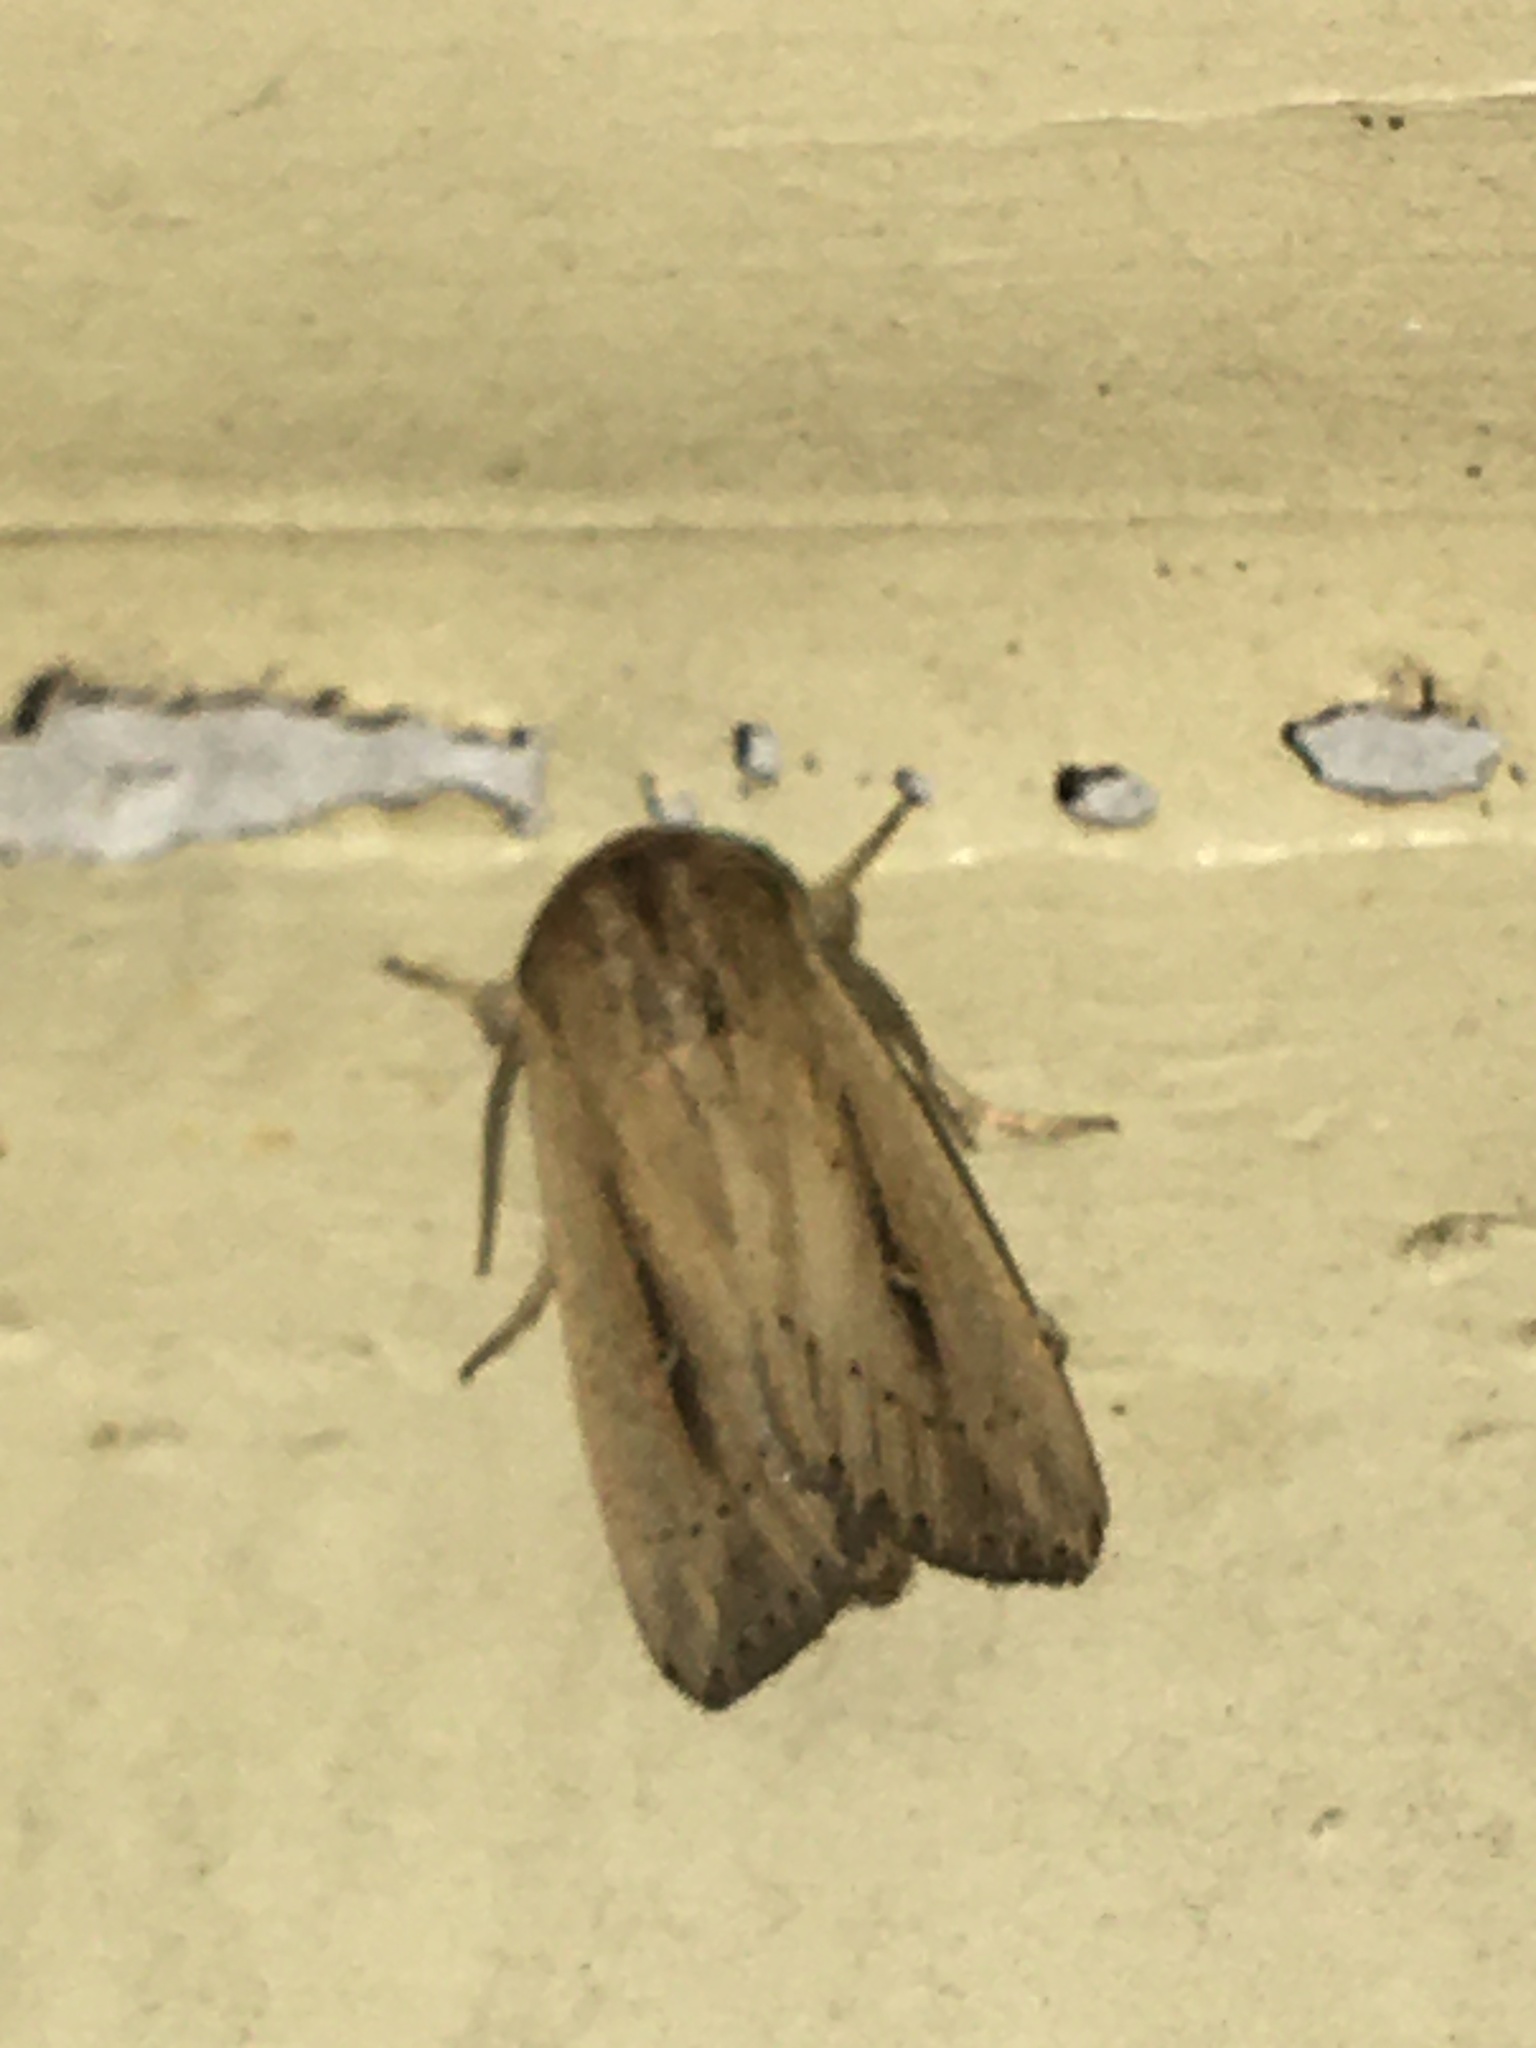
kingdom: Animalia
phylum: Arthropoda
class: Insecta
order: Lepidoptera
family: Noctuidae
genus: Leucania
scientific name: Leucania incognita
